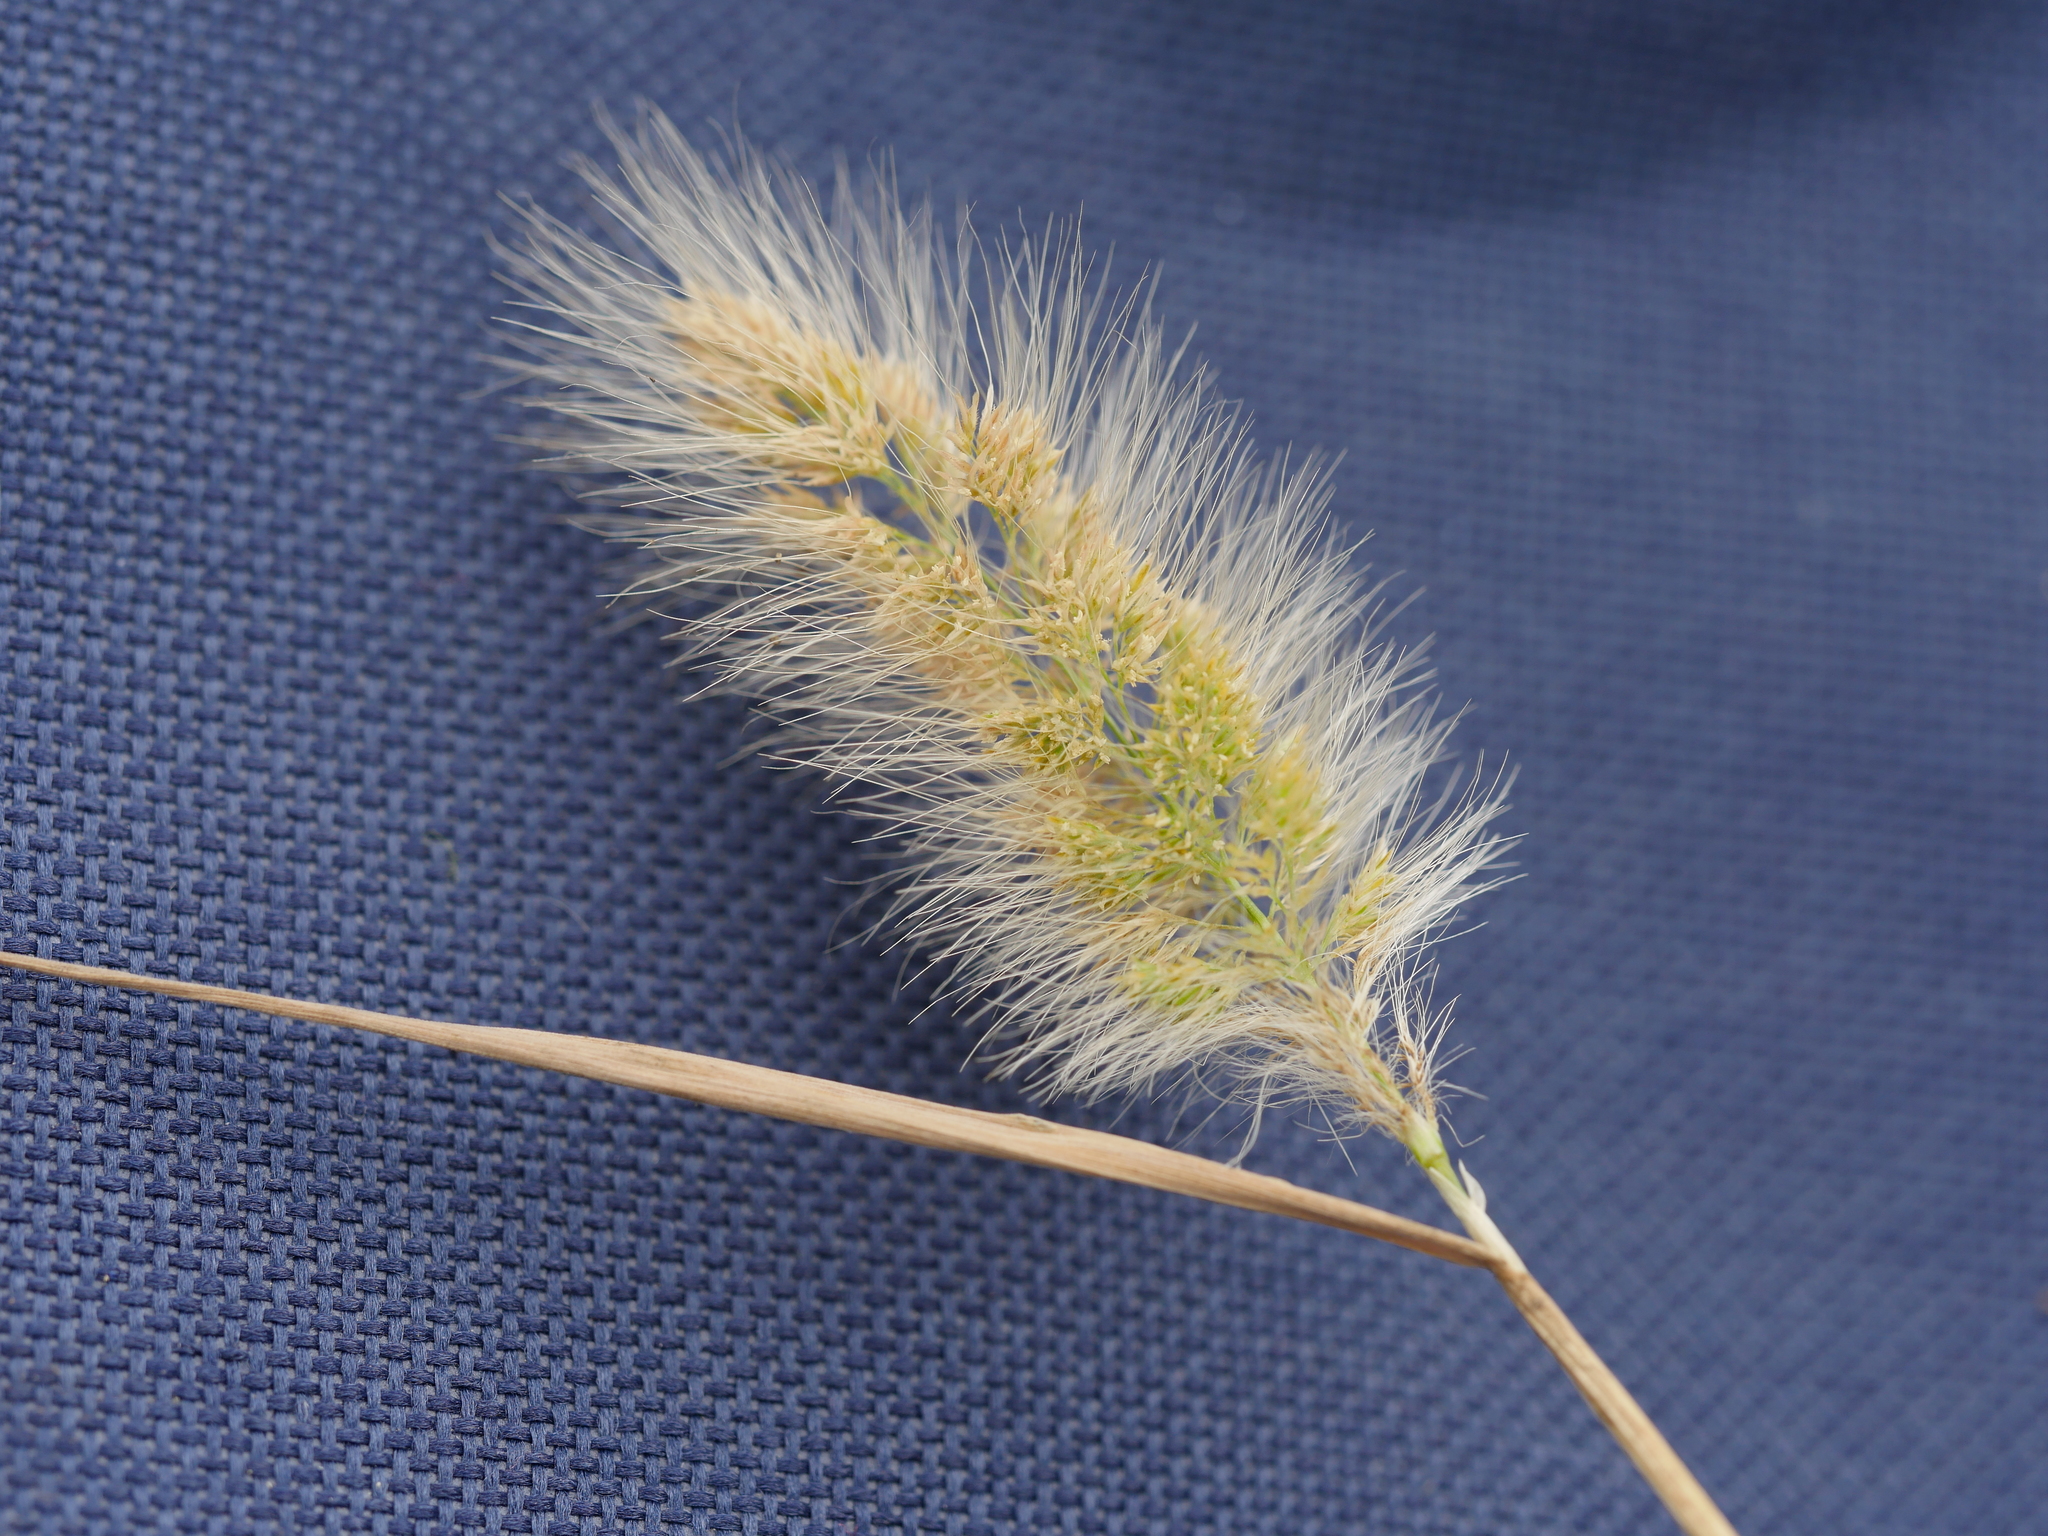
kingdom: Plantae
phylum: Tracheophyta
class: Liliopsida
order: Poales
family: Poaceae
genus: Polypogon
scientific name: Polypogon monspeliensis
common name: Annual rabbitsfoot grass
